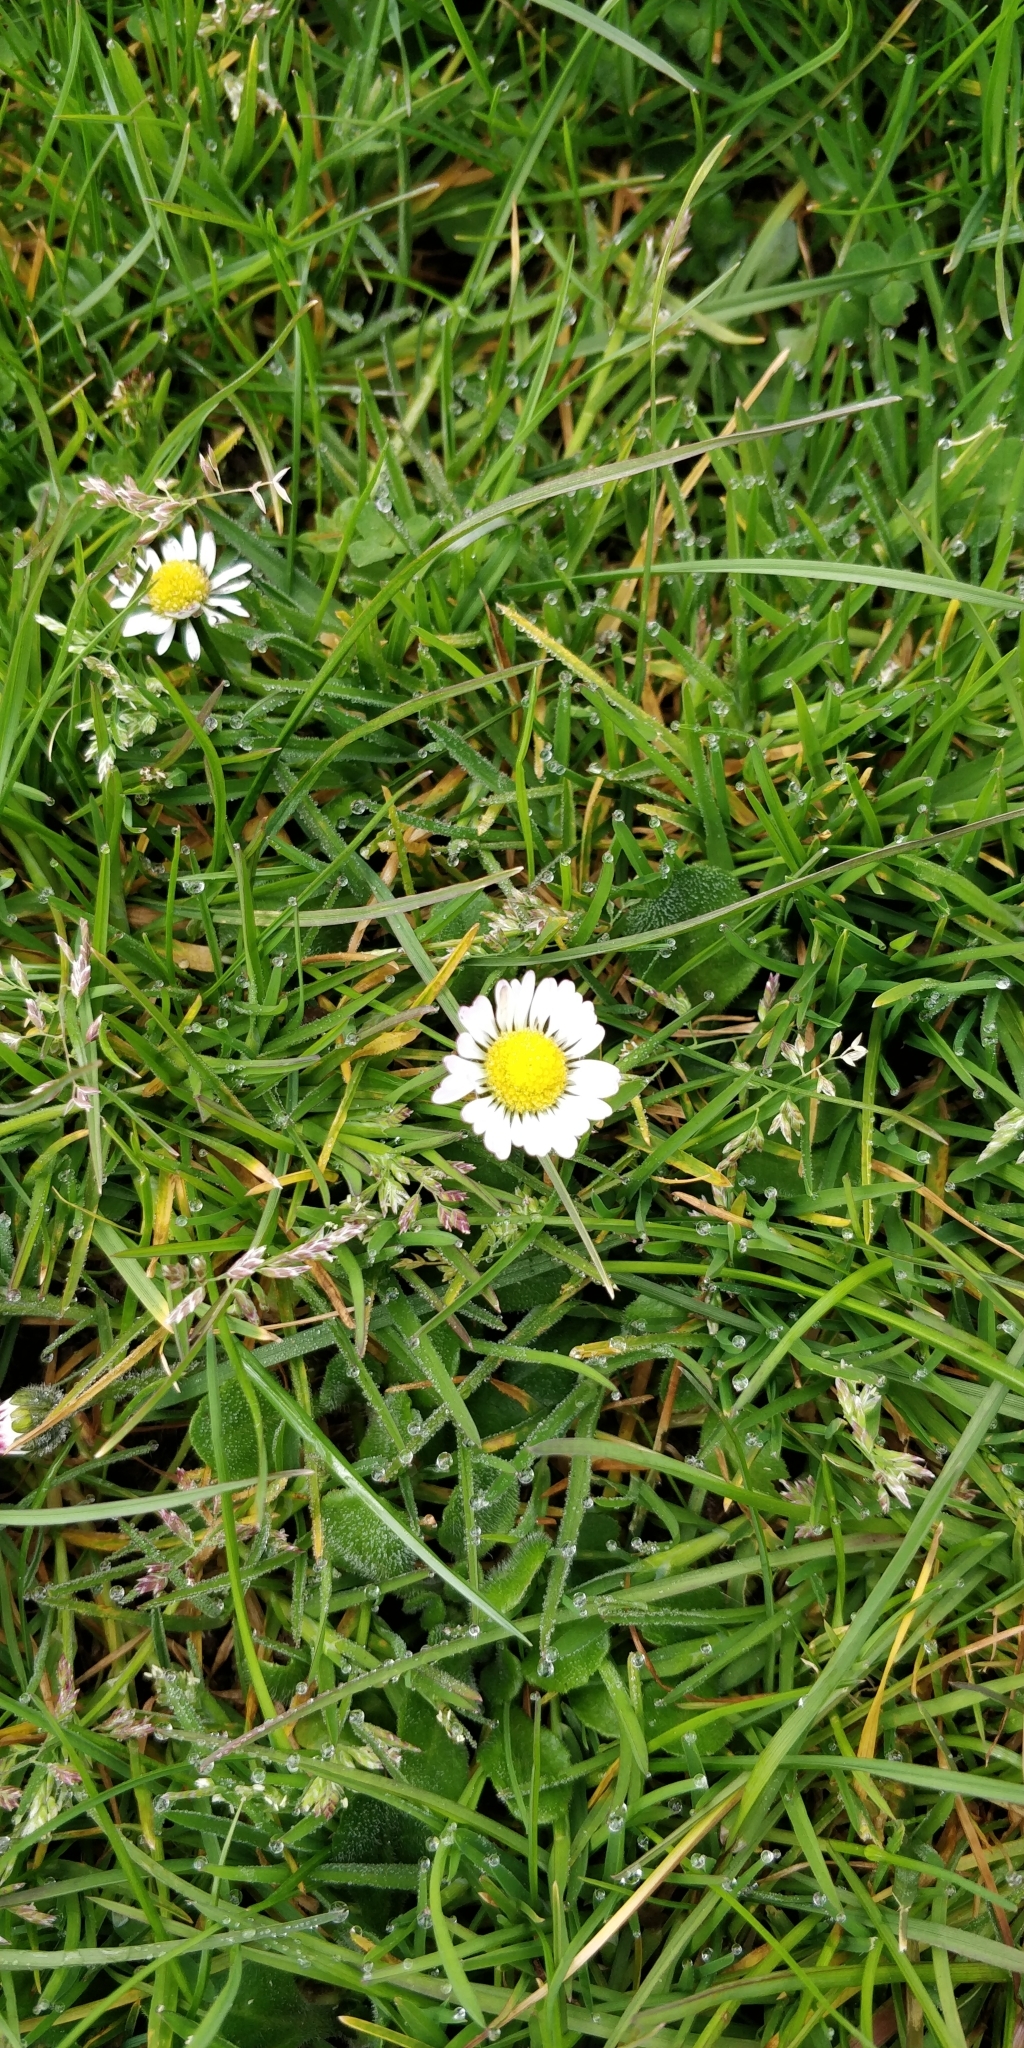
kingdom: Plantae
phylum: Tracheophyta
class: Magnoliopsida
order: Asterales
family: Asteraceae
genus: Bellis
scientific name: Bellis perennis
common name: Lawndaisy
